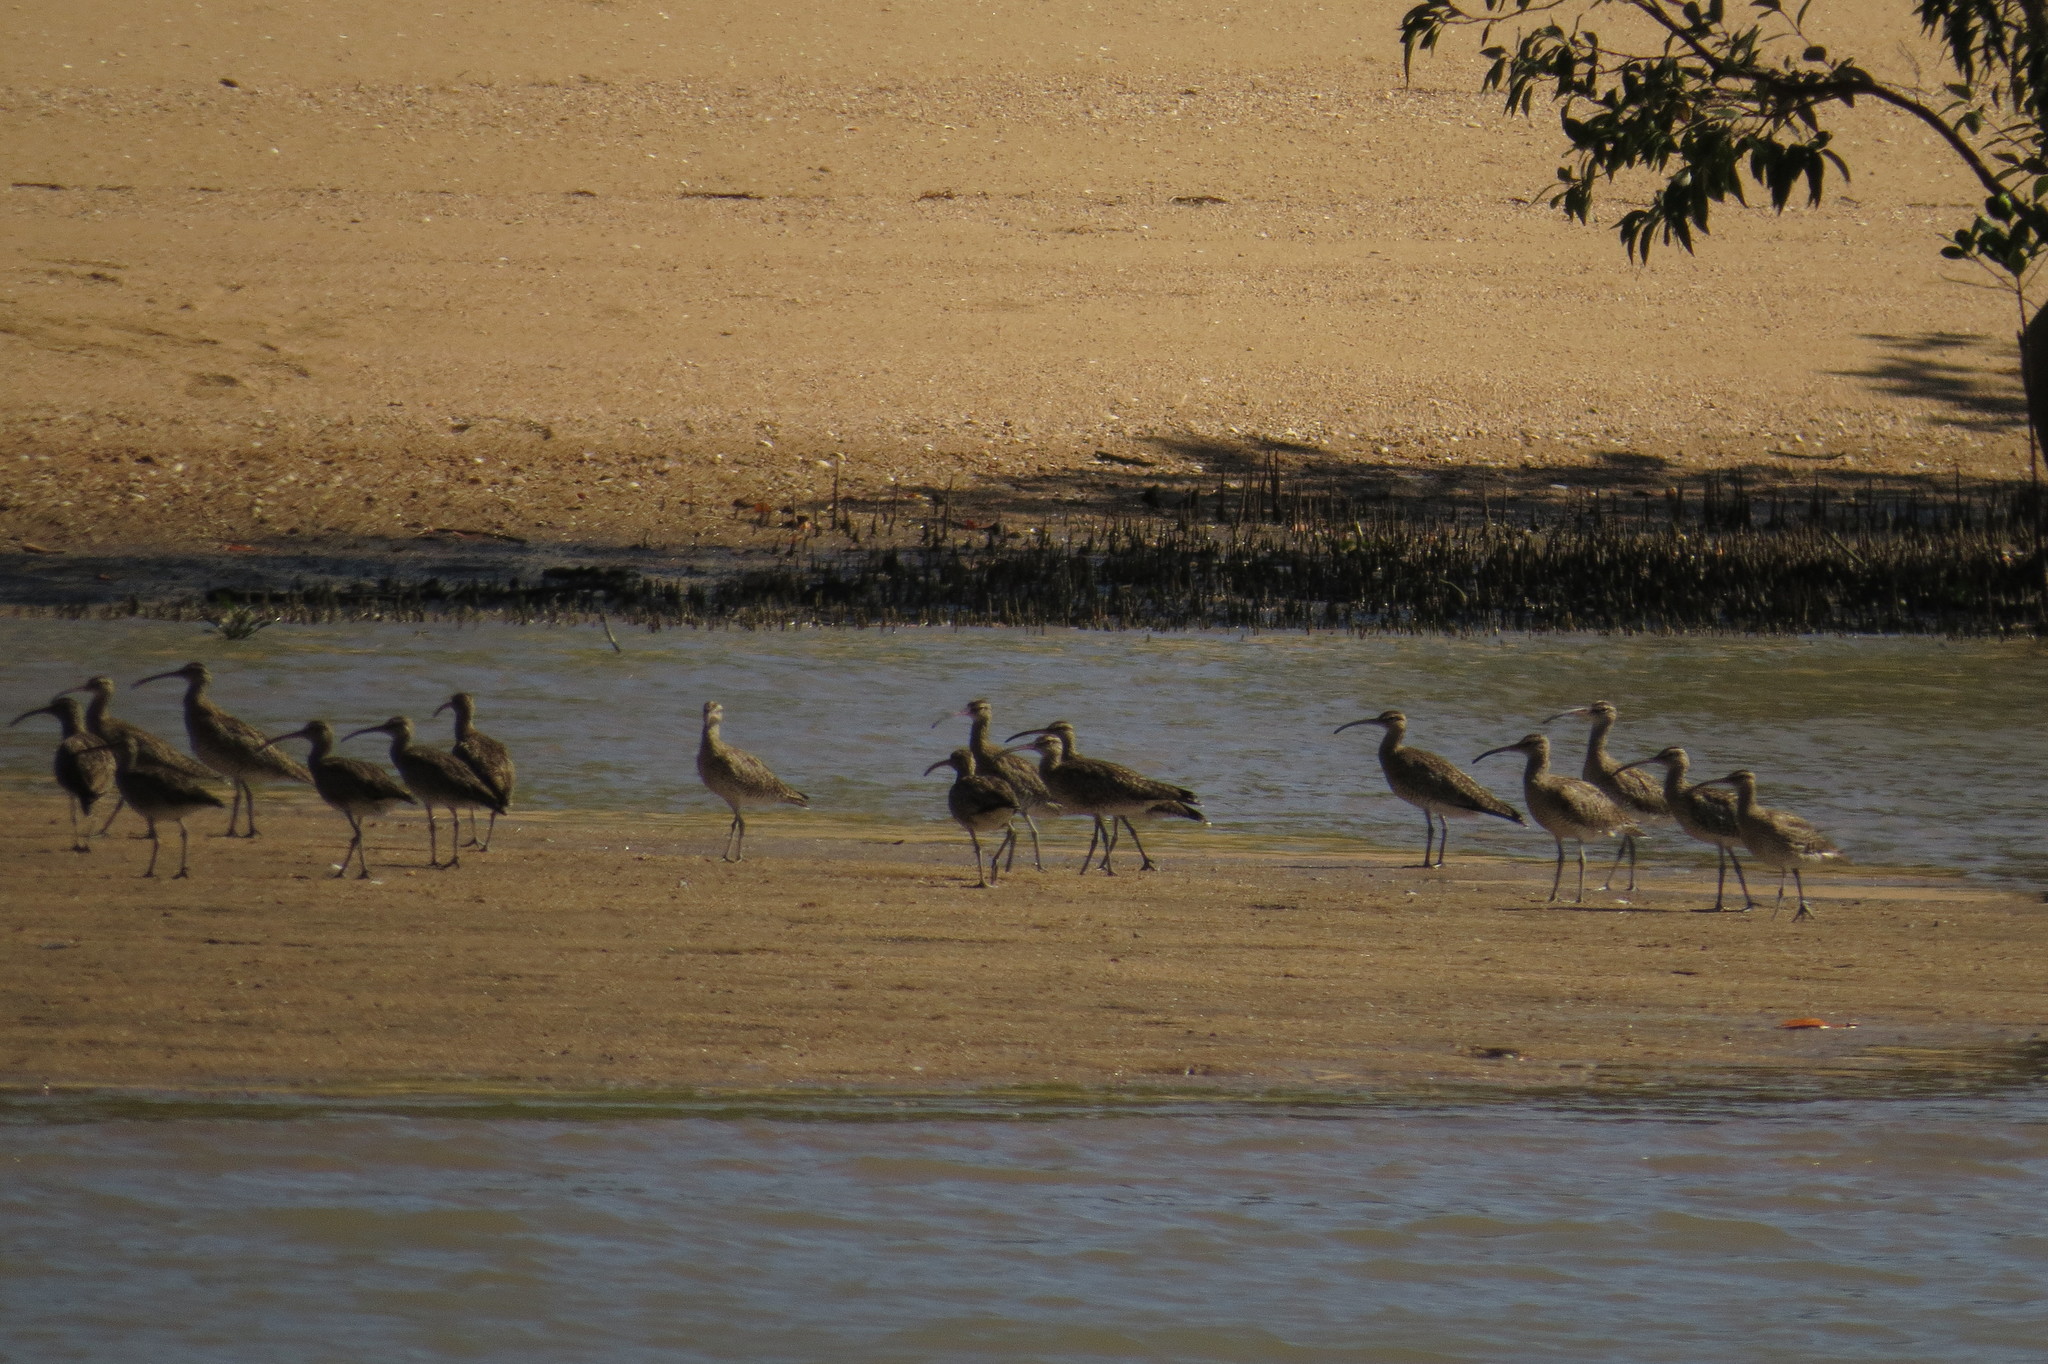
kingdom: Animalia
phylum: Chordata
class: Aves
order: Charadriiformes
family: Scolopacidae
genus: Numenius
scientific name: Numenius phaeopus
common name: Whimbrel
